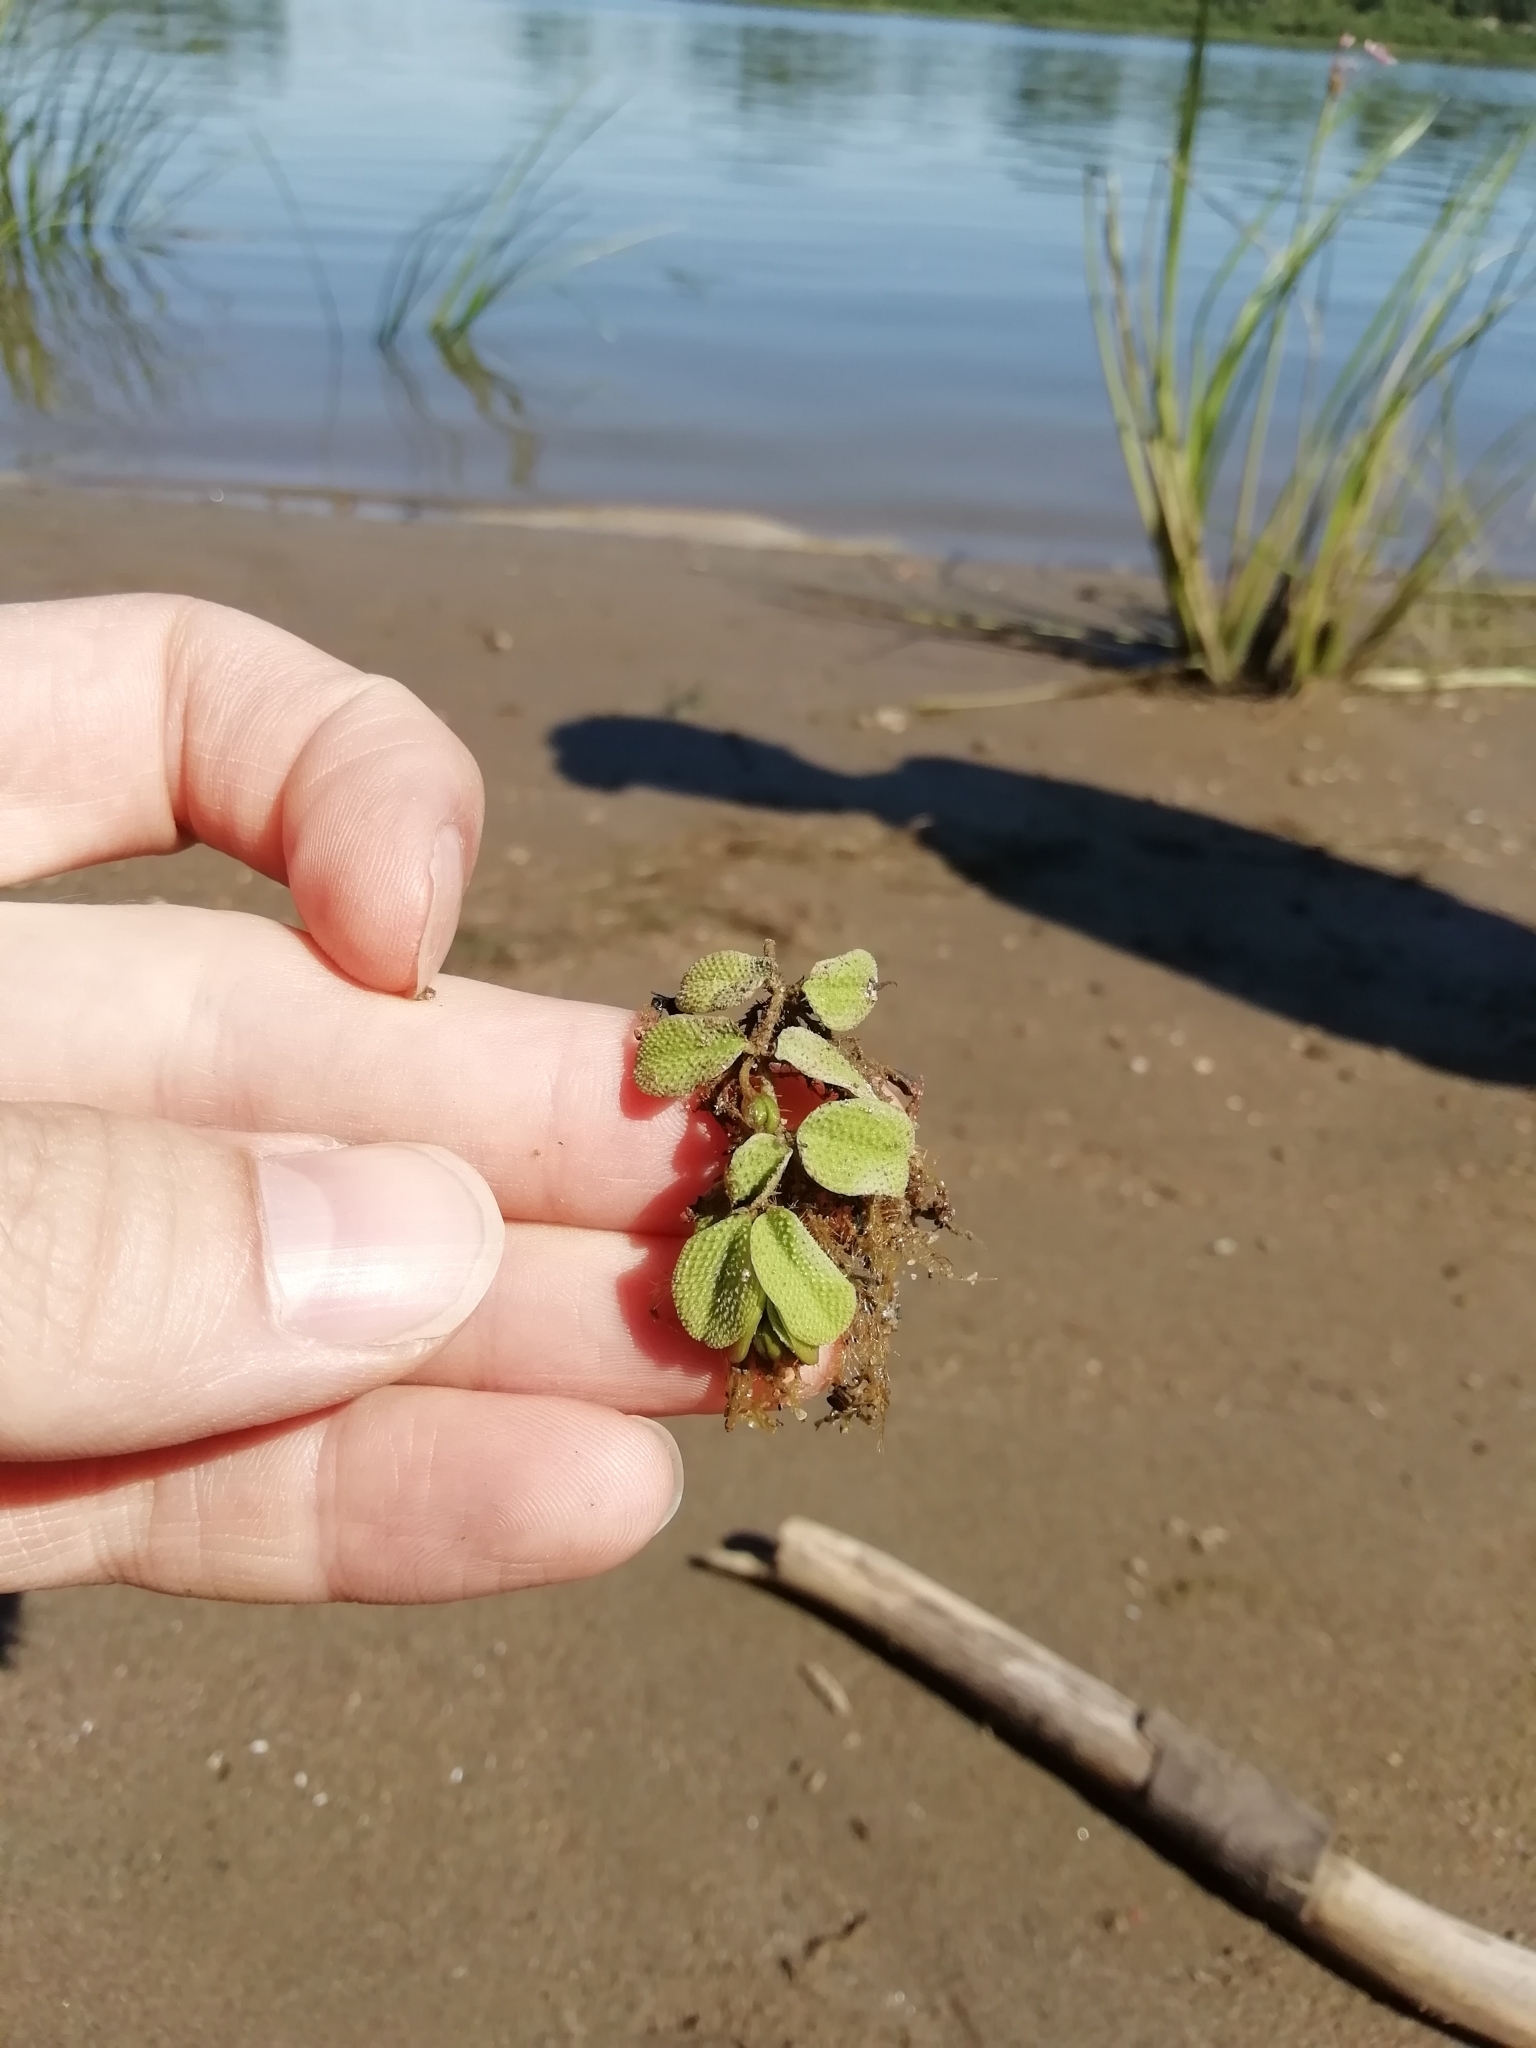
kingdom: Plantae
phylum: Tracheophyta
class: Polypodiopsida
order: Salviniales
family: Salviniaceae
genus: Salvinia
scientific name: Salvinia natans
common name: Floating fern
